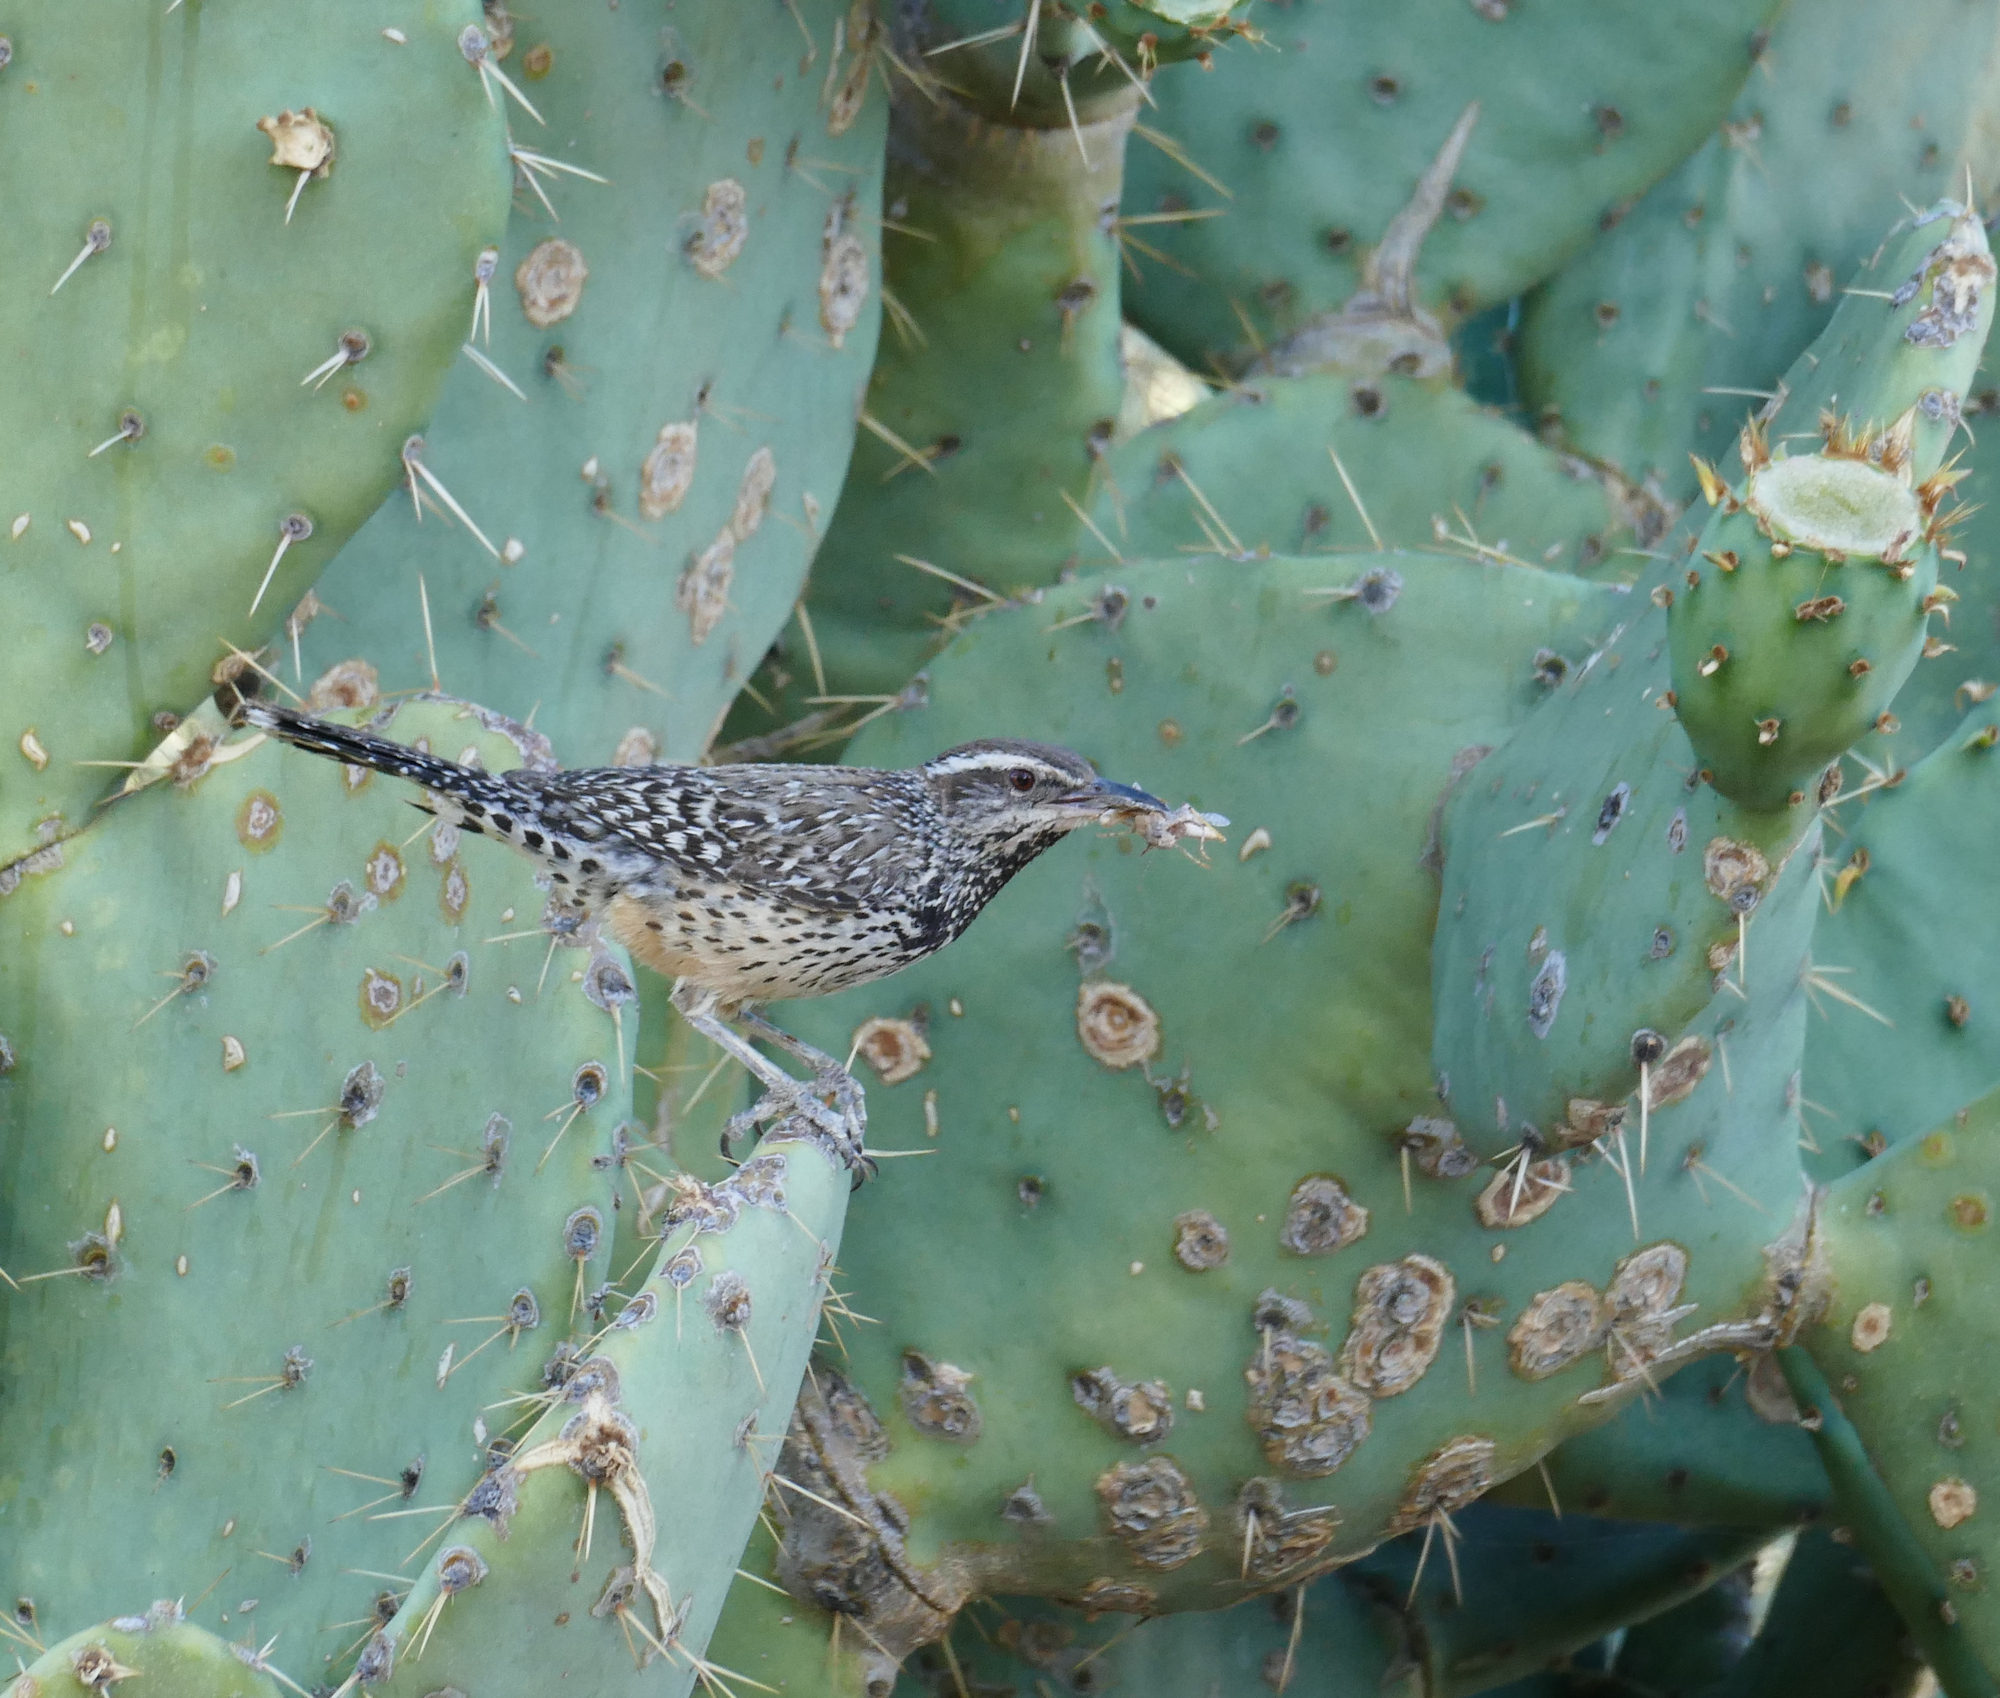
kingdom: Animalia
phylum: Chordata
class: Aves
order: Passeriformes
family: Troglodytidae
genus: Campylorhynchus
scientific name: Campylorhynchus brunneicapillus
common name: Cactus wren
